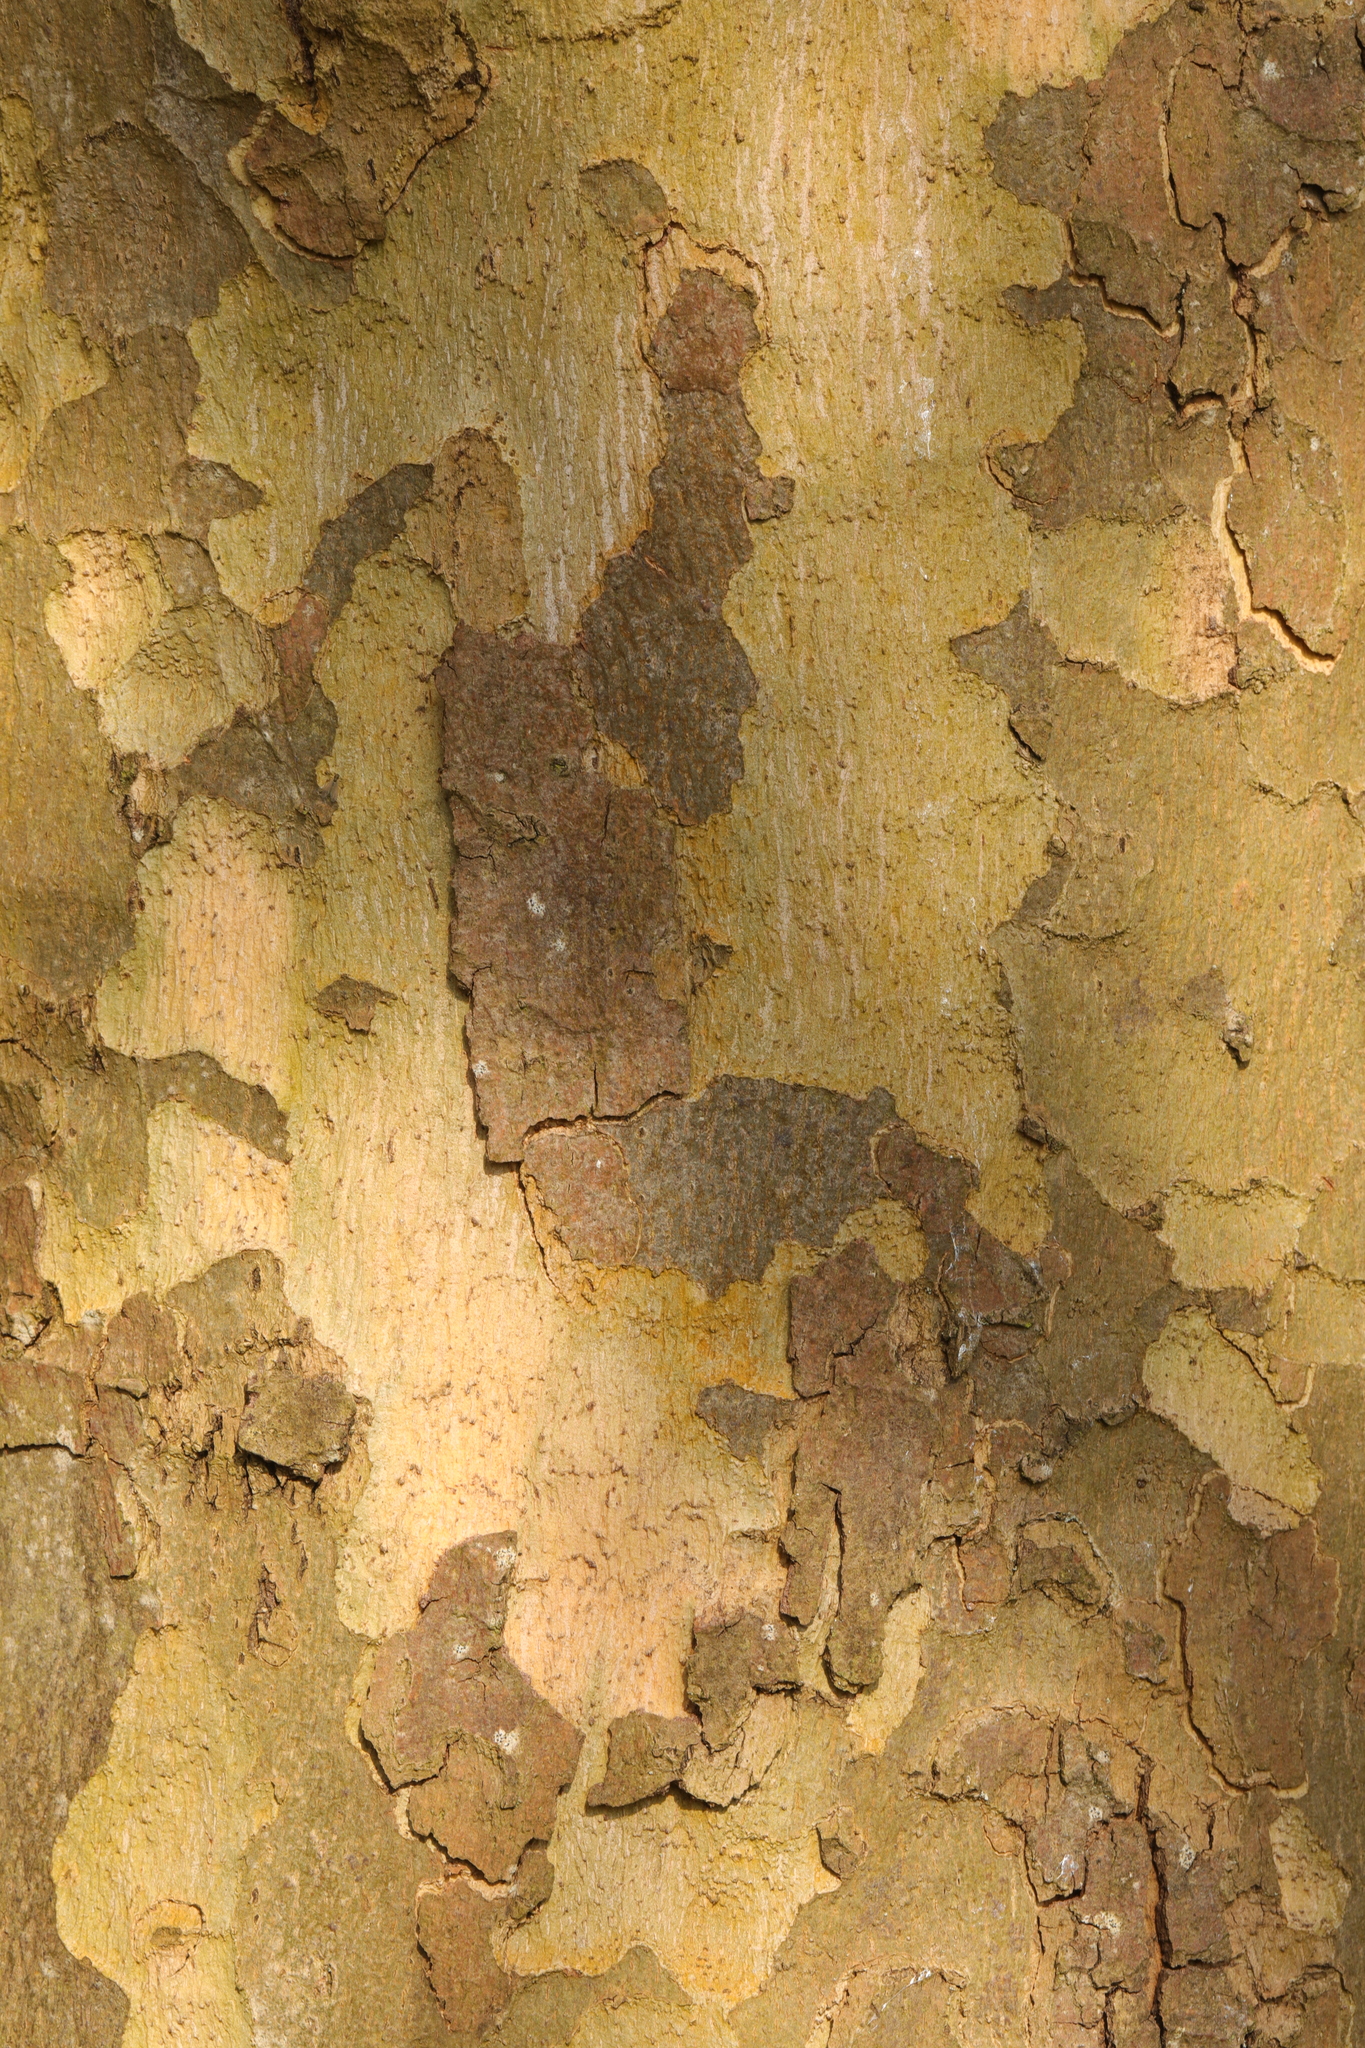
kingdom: Plantae
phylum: Tracheophyta
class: Magnoliopsida
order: Proteales
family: Platanaceae
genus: Platanus
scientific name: Platanus hispanica
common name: London plane
